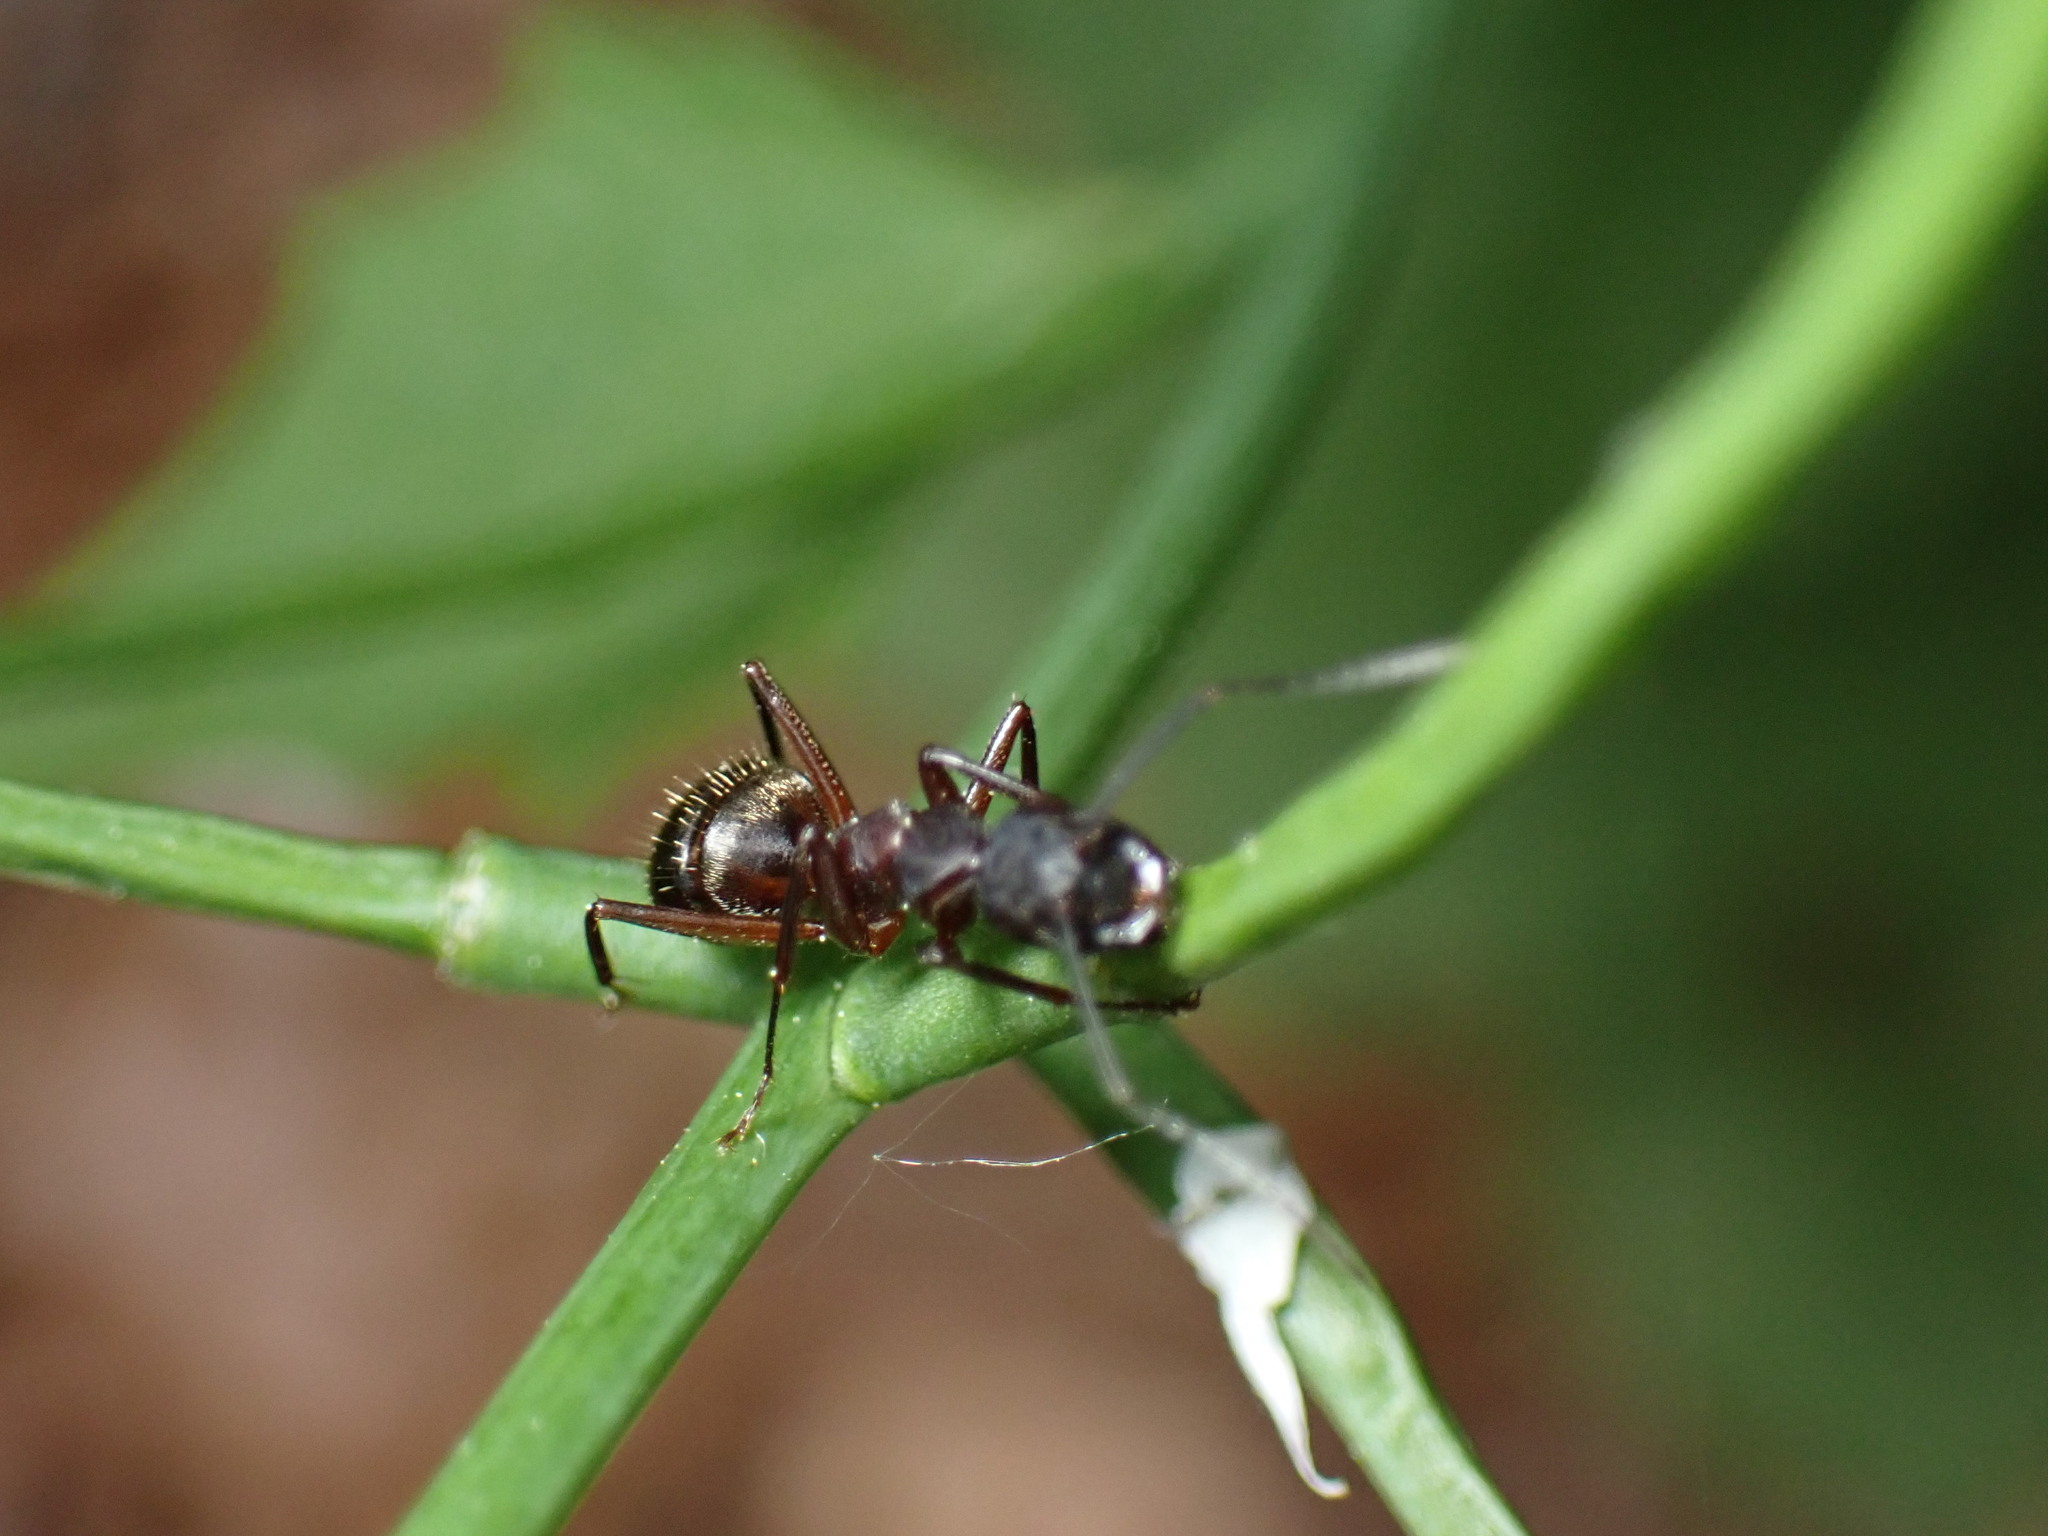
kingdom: Animalia
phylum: Arthropoda
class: Insecta
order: Hymenoptera
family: Formicidae
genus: Camponotus
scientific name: Camponotus chromaiodes
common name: Red carpenter ant
